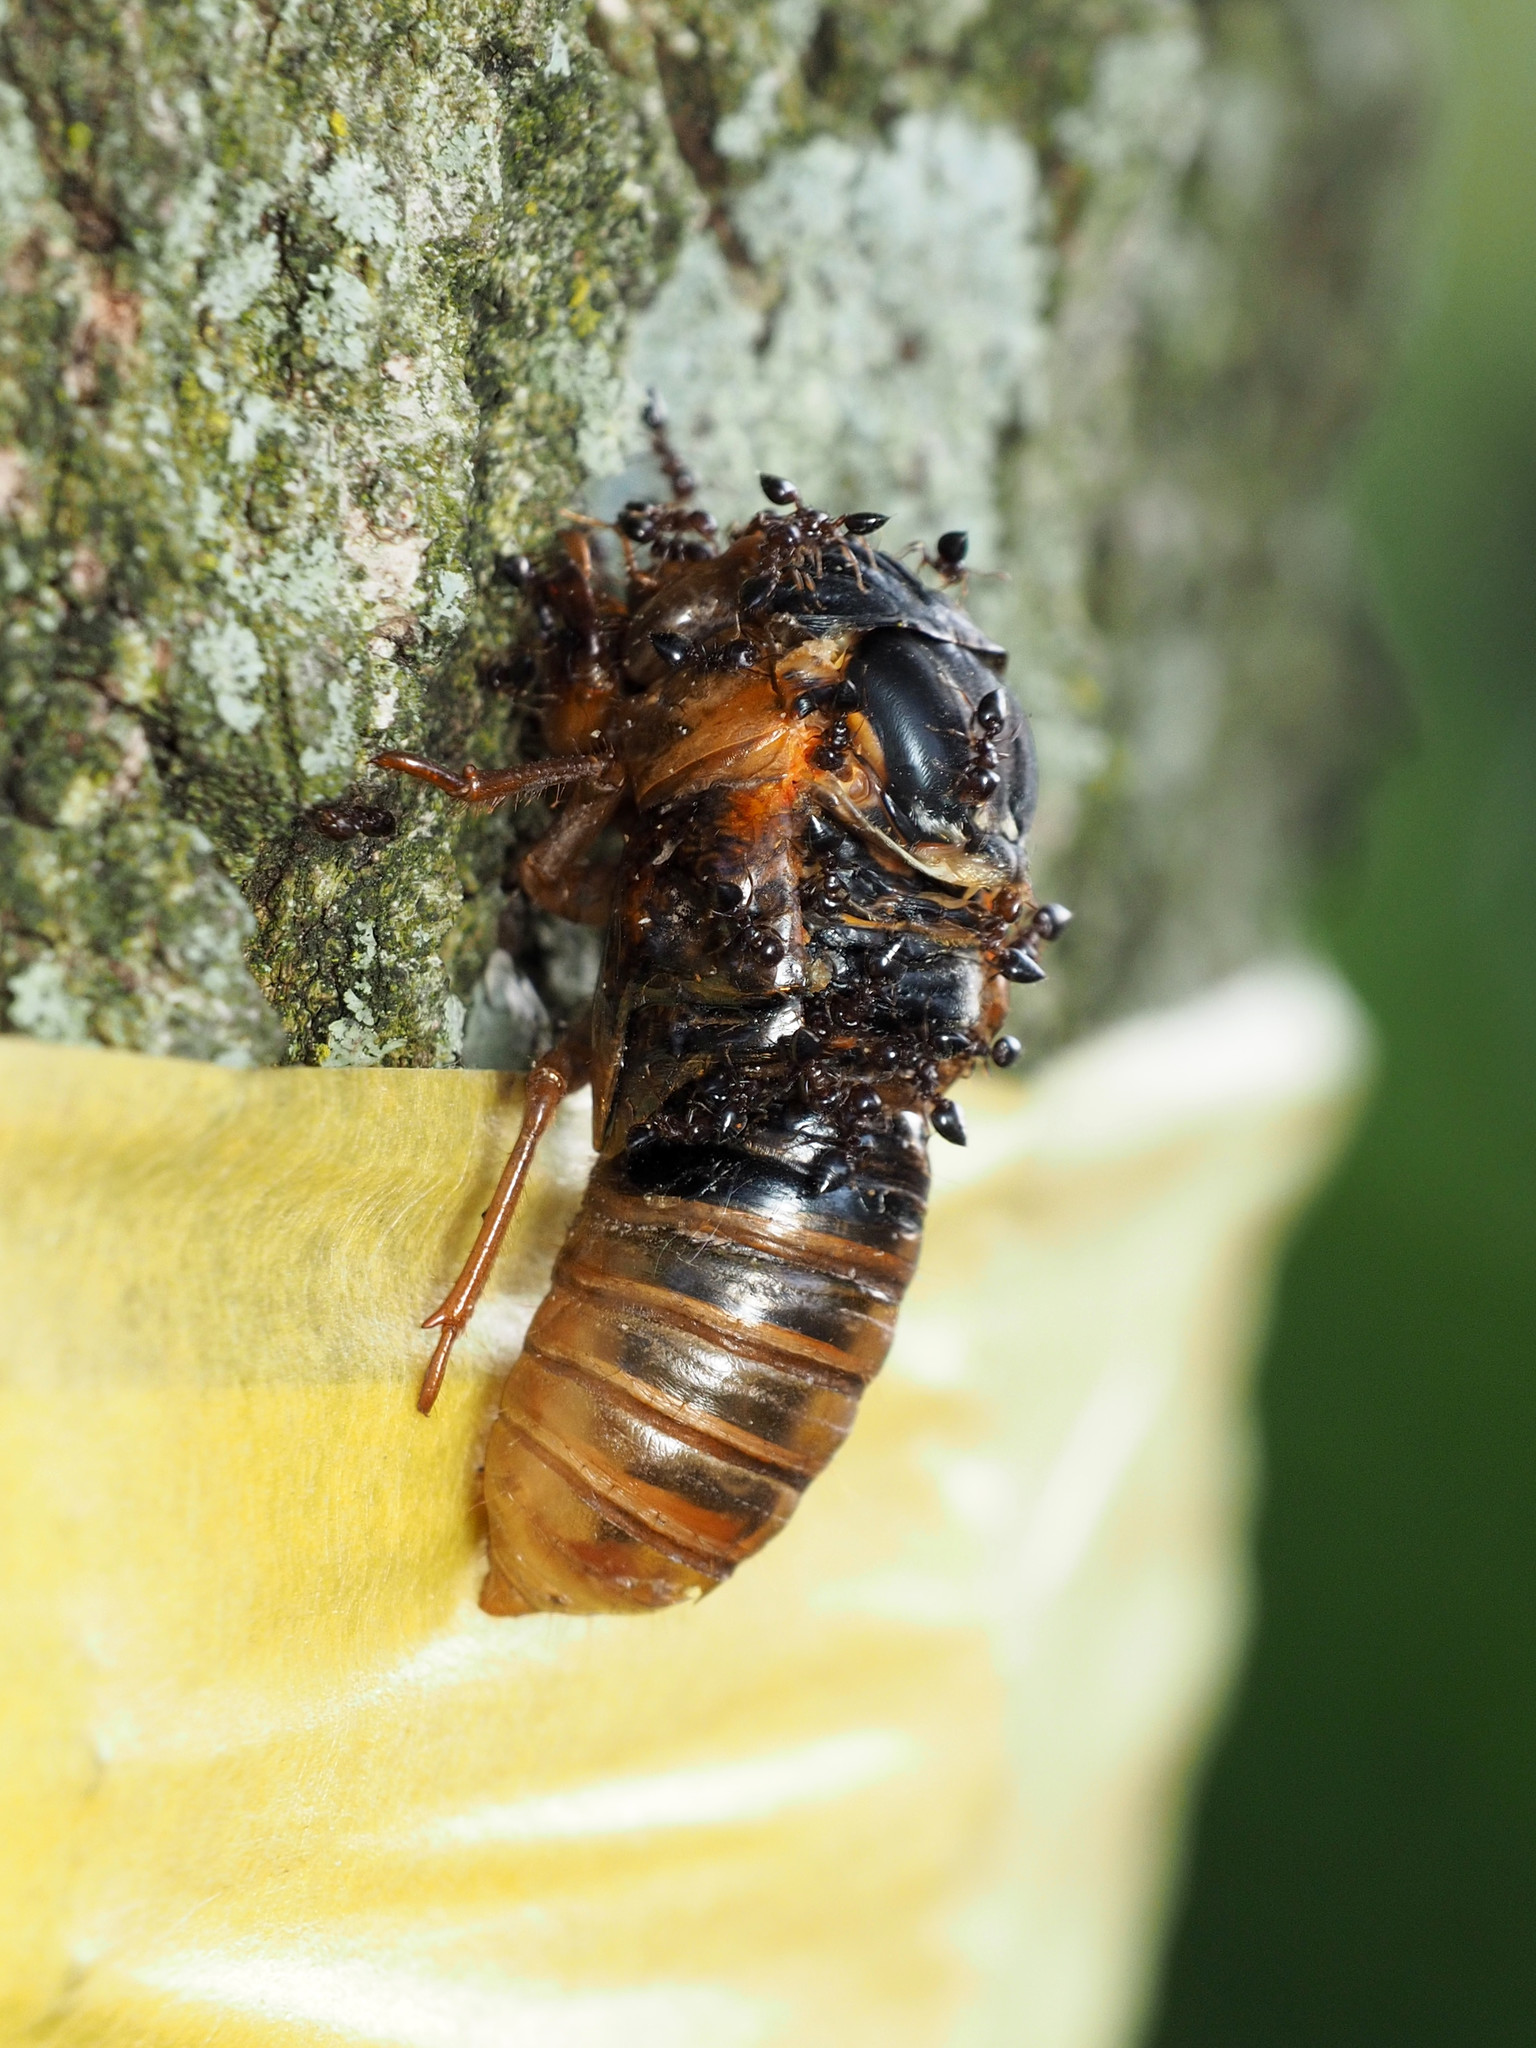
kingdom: Animalia
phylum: Arthropoda
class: Insecta
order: Hemiptera
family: Cicadidae
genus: Magicicada
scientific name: Magicicada
